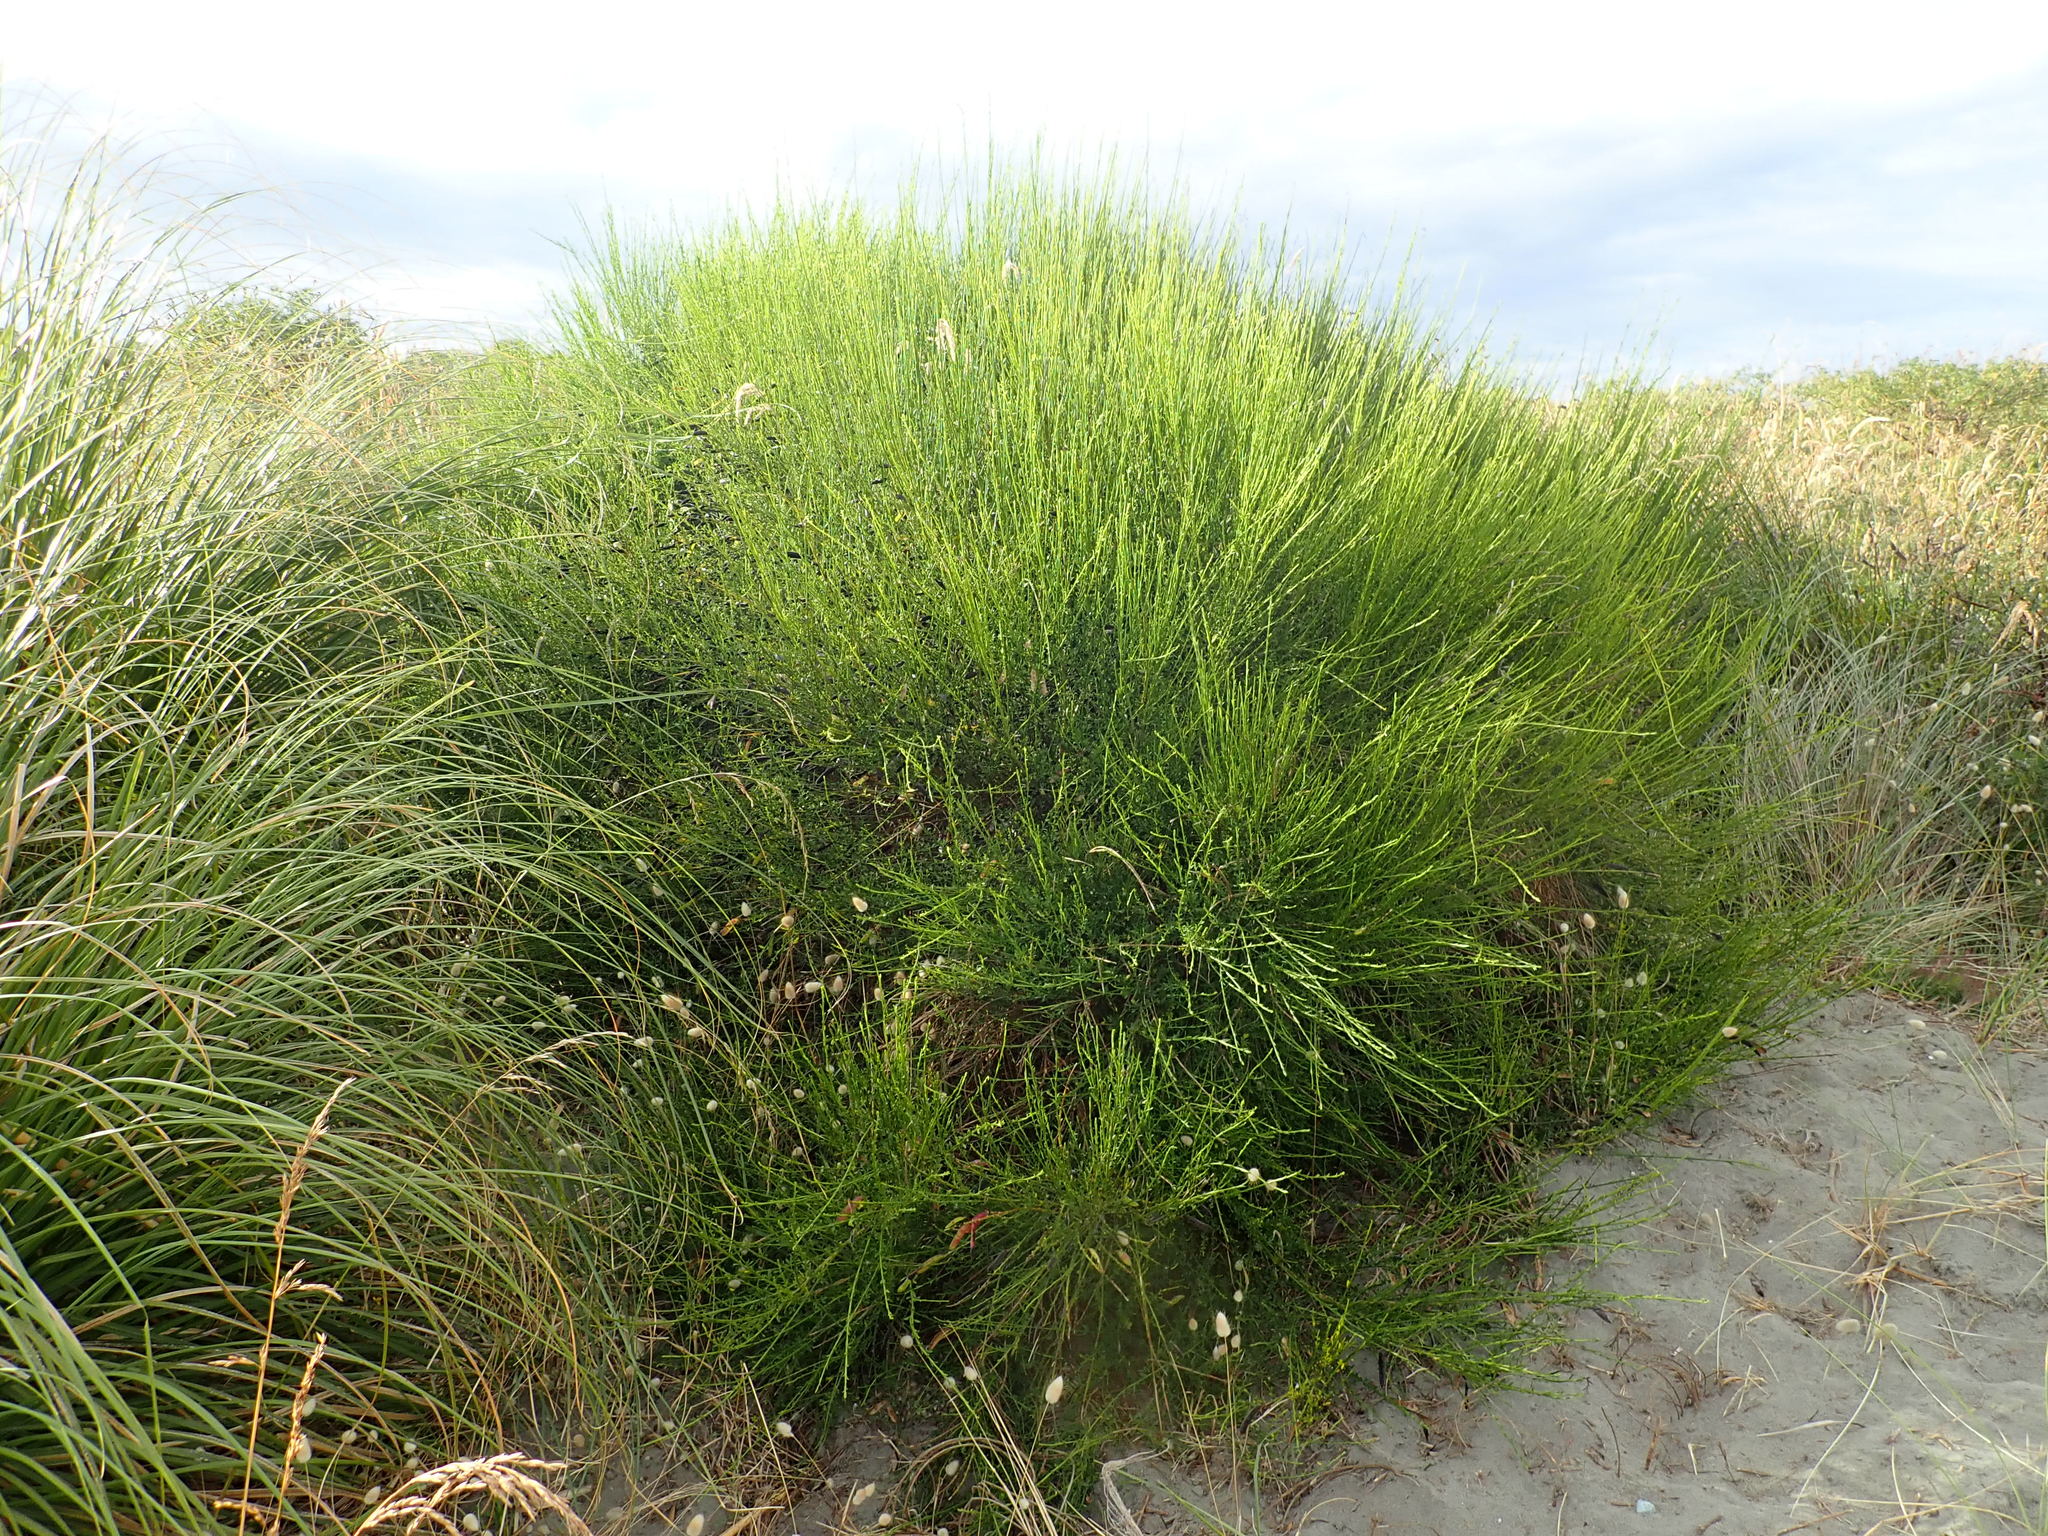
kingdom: Plantae
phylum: Tracheophyta
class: Magnoliopsida
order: Fabales
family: Fabaceae
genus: Cytisus
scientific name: Cytisus scoparius
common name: Scotch broom
